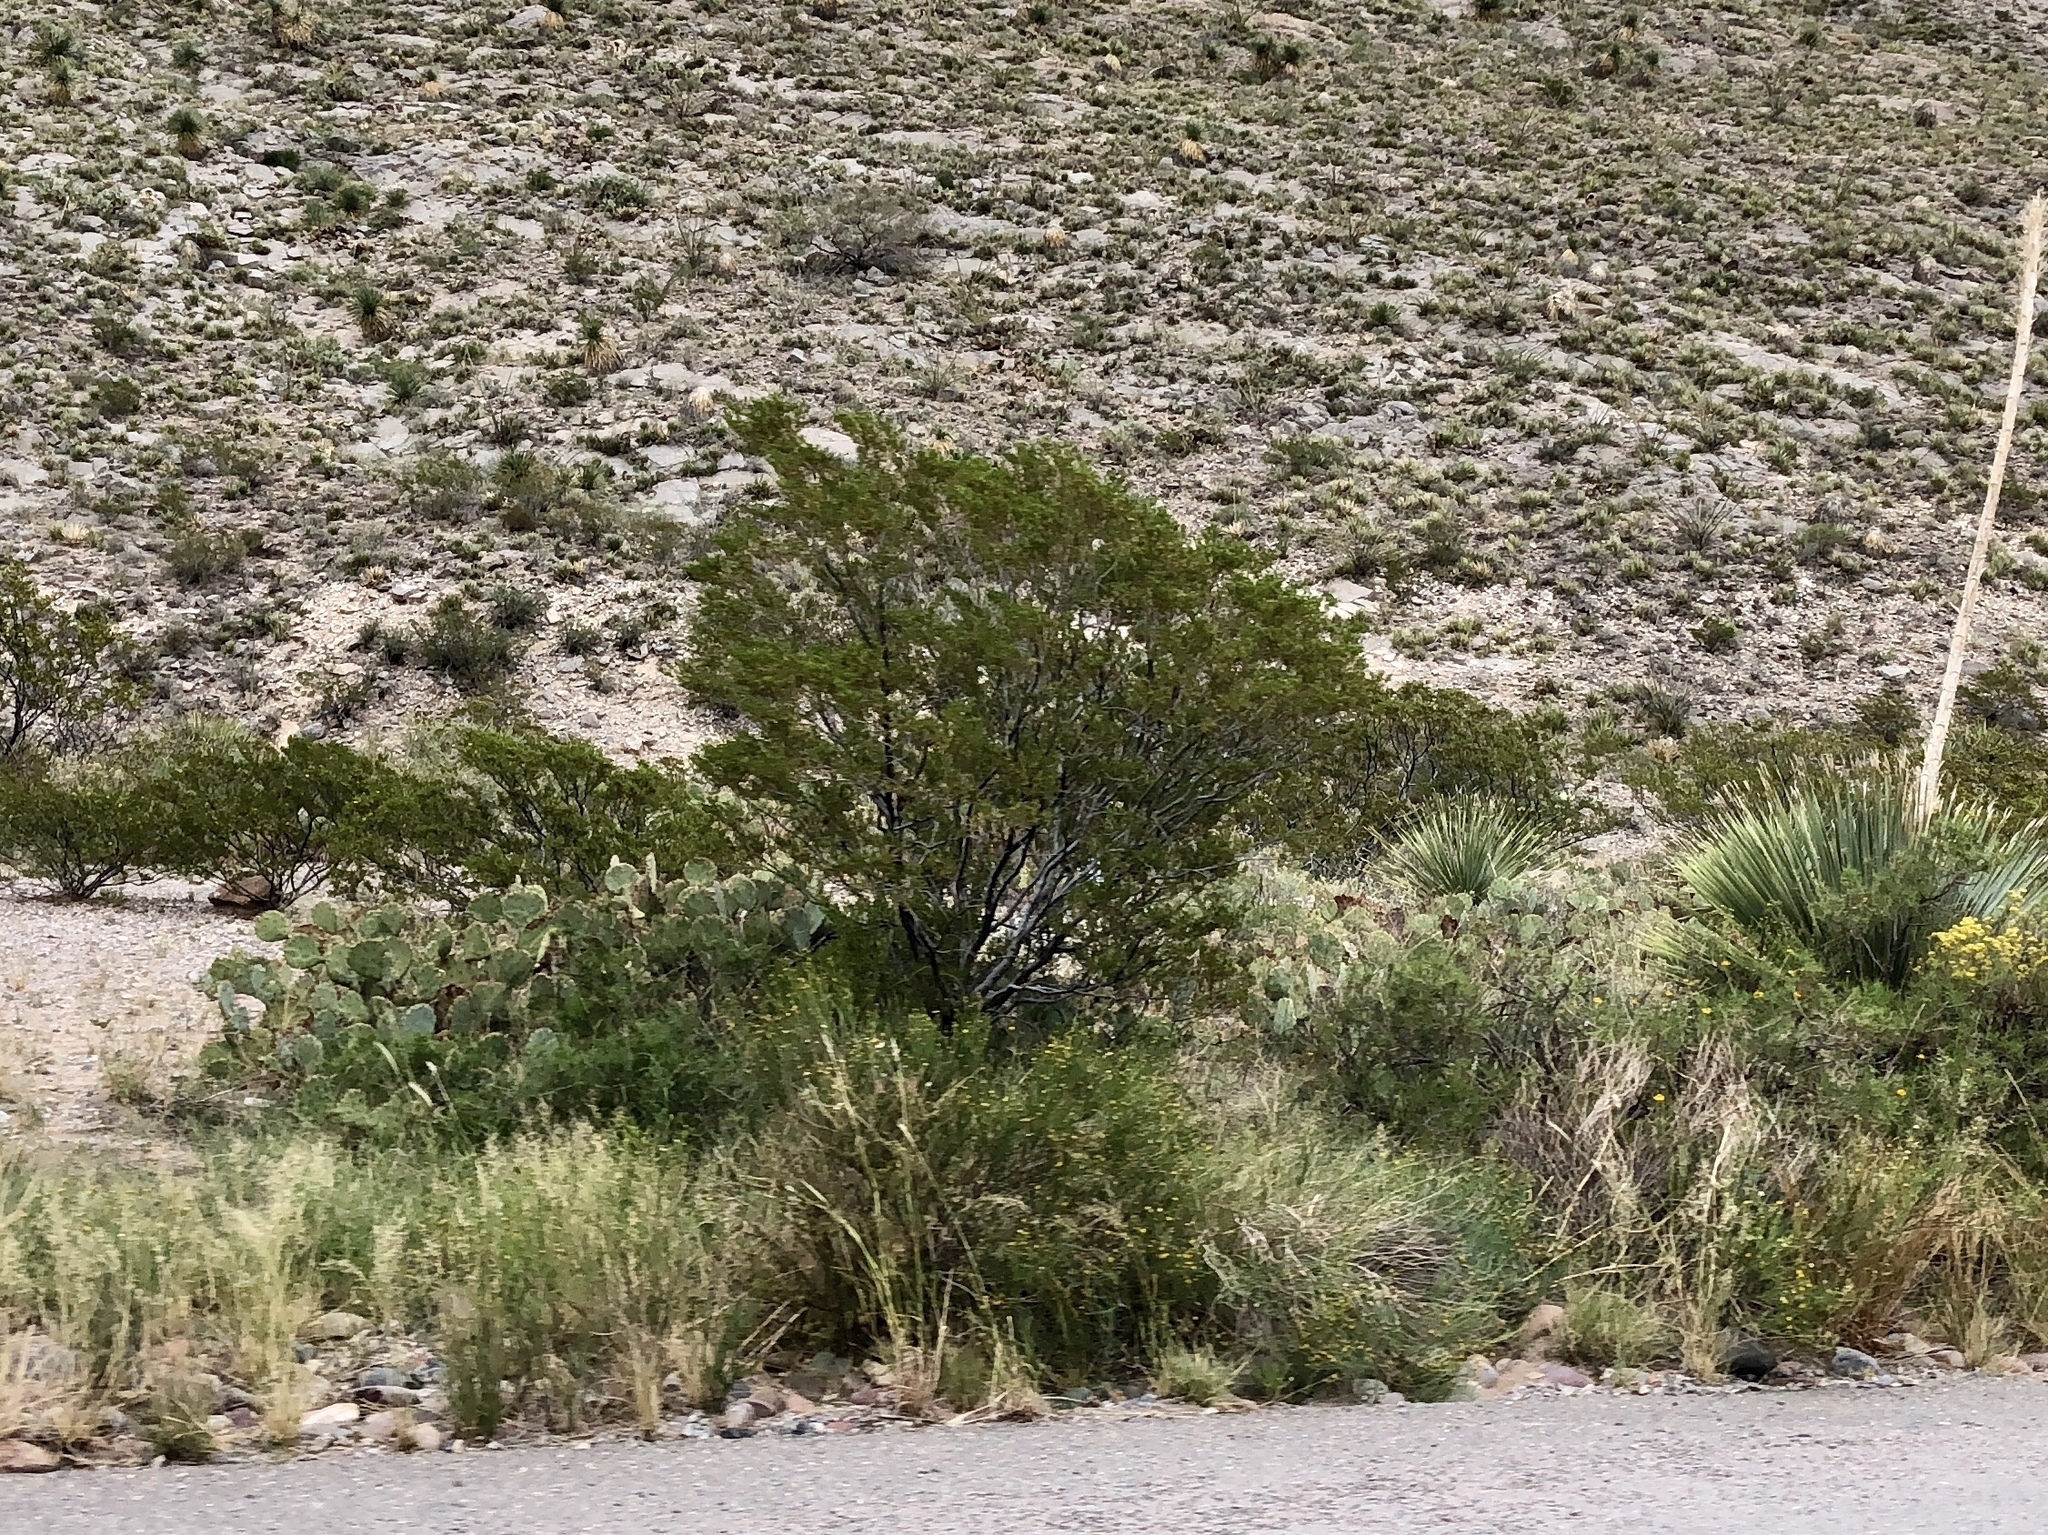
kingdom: Plantae
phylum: Tracheophyta
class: Magnoliopsida
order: Zygophyllales
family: Zygophyllaceae
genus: Larrea
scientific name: Larrea tridentata
